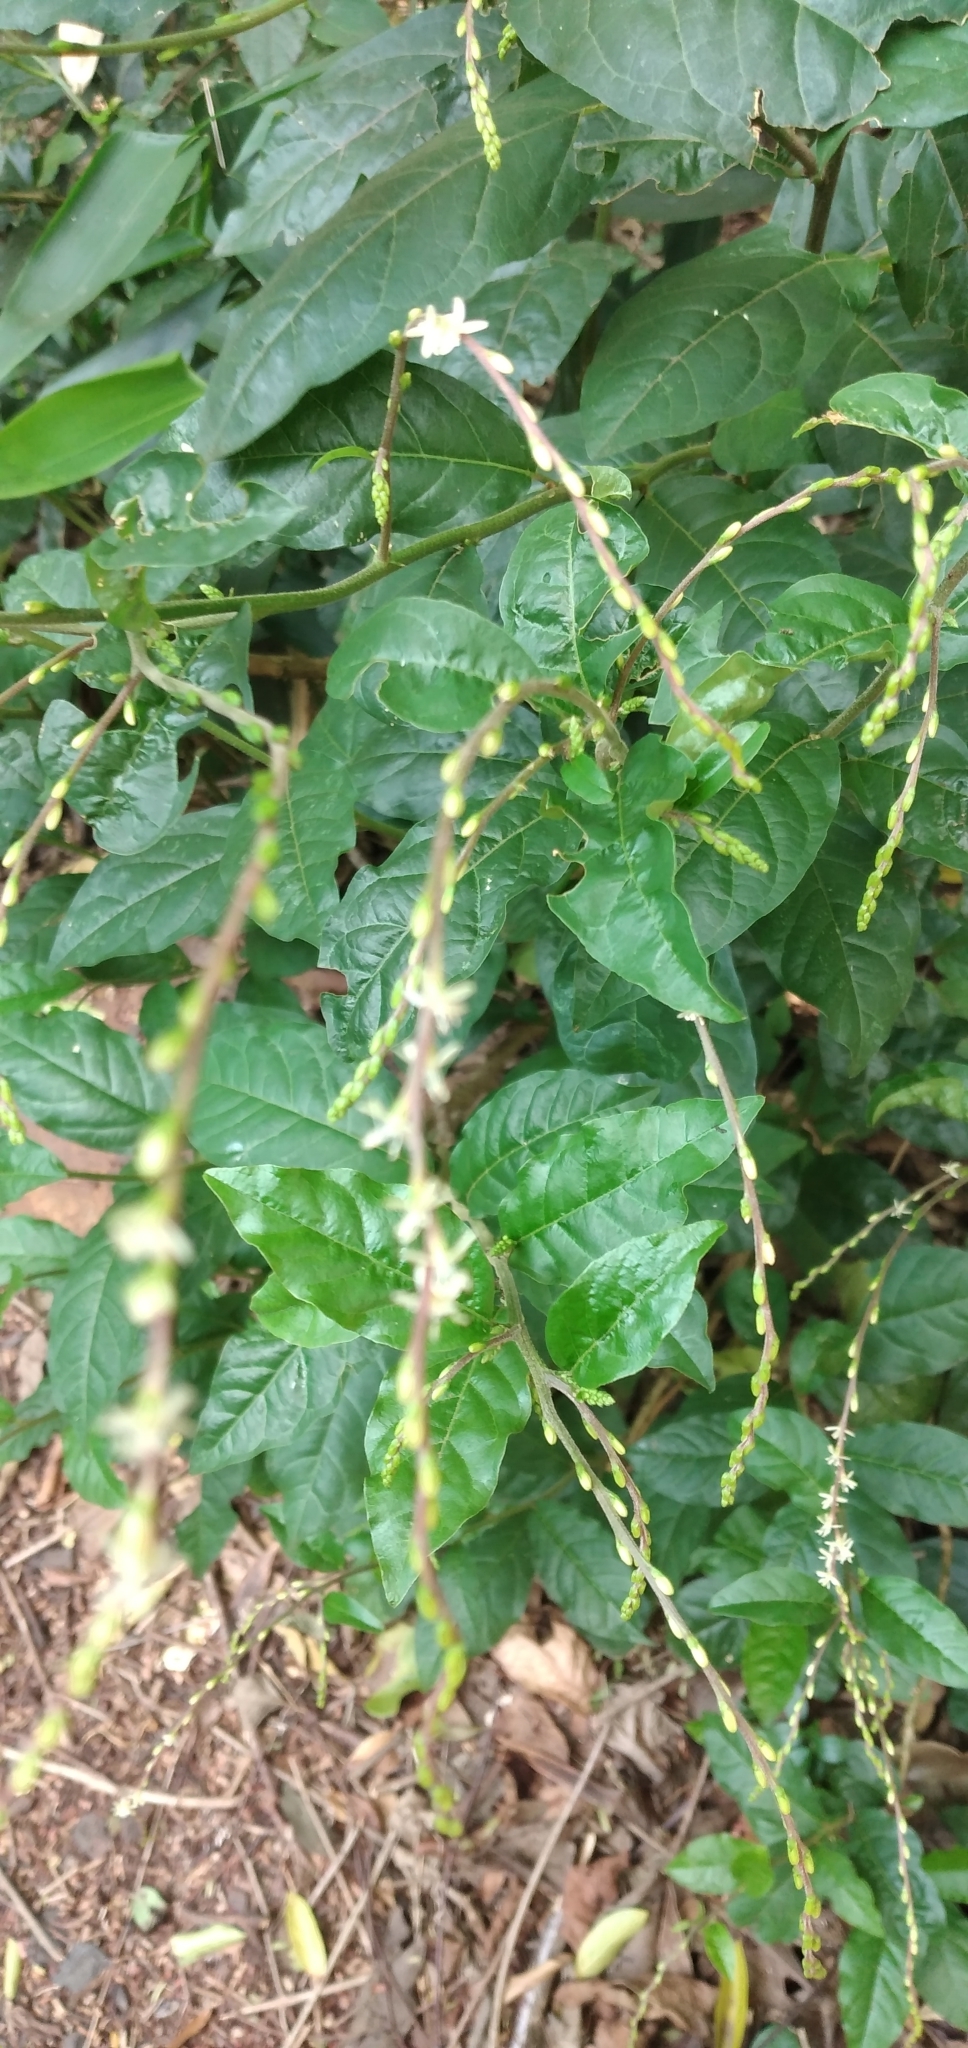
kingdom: Plantae
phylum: Tracheophyta
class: Magnoliopsida
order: Caryophyllales
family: Phytolaccaceae
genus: Petiveria
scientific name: Petiveria alliacea
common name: Garlicweed
